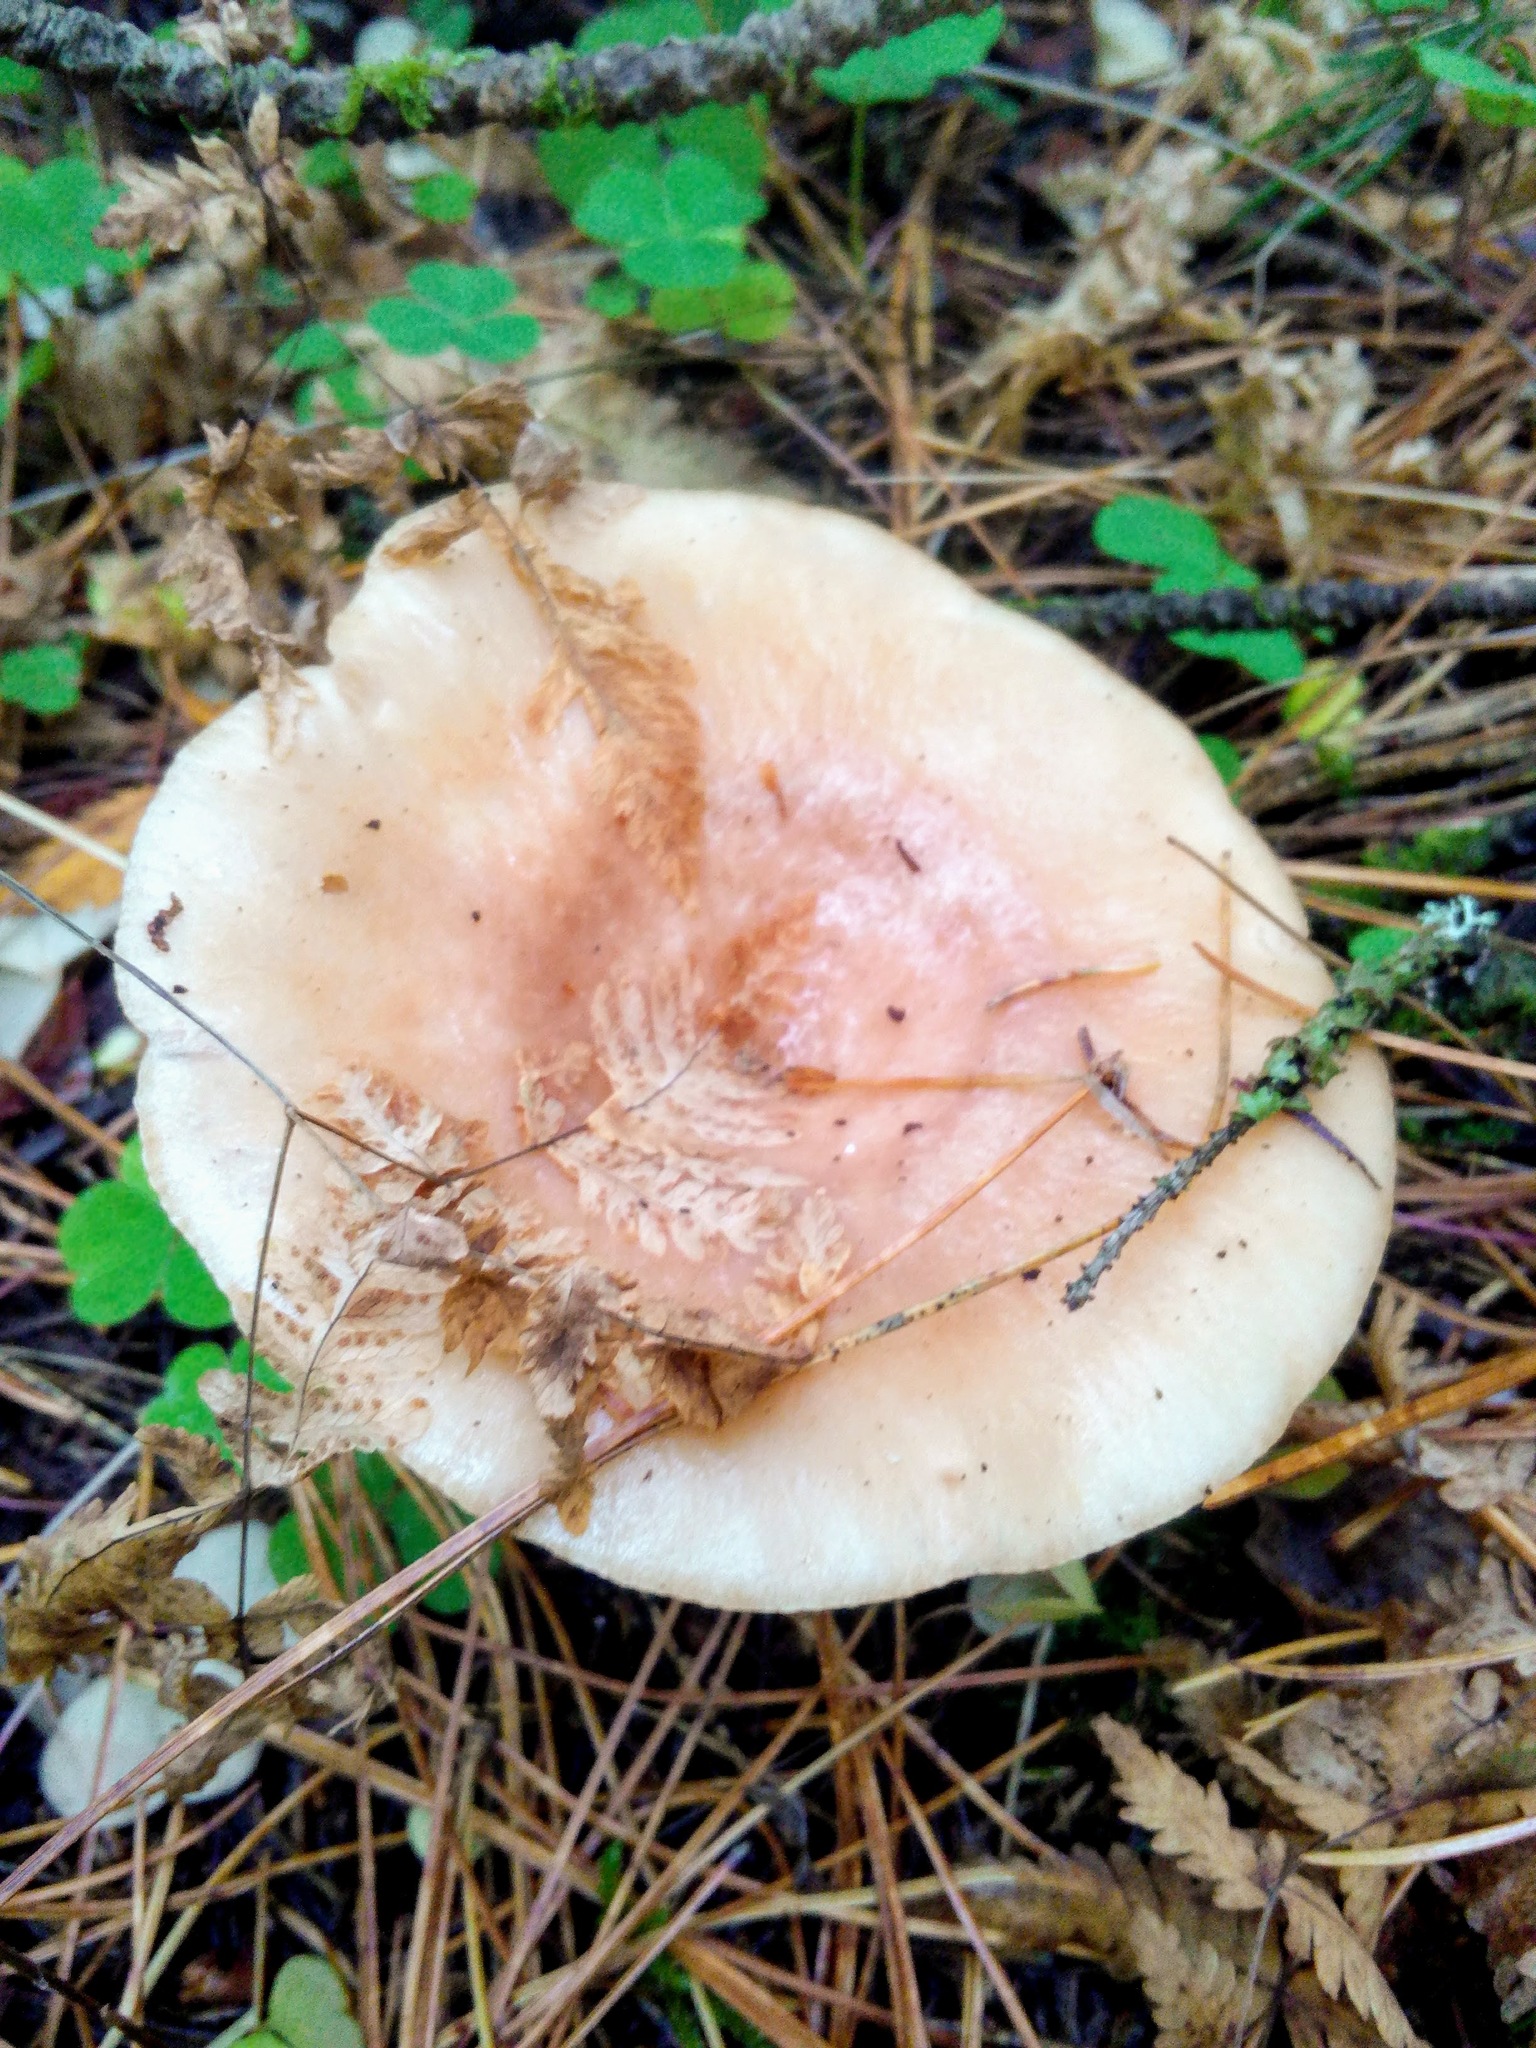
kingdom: Fungi
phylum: Basidiomycota
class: Agaricomycetes
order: Russulales
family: Russulaceae
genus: Lactarius
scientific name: Lactarius utilis
